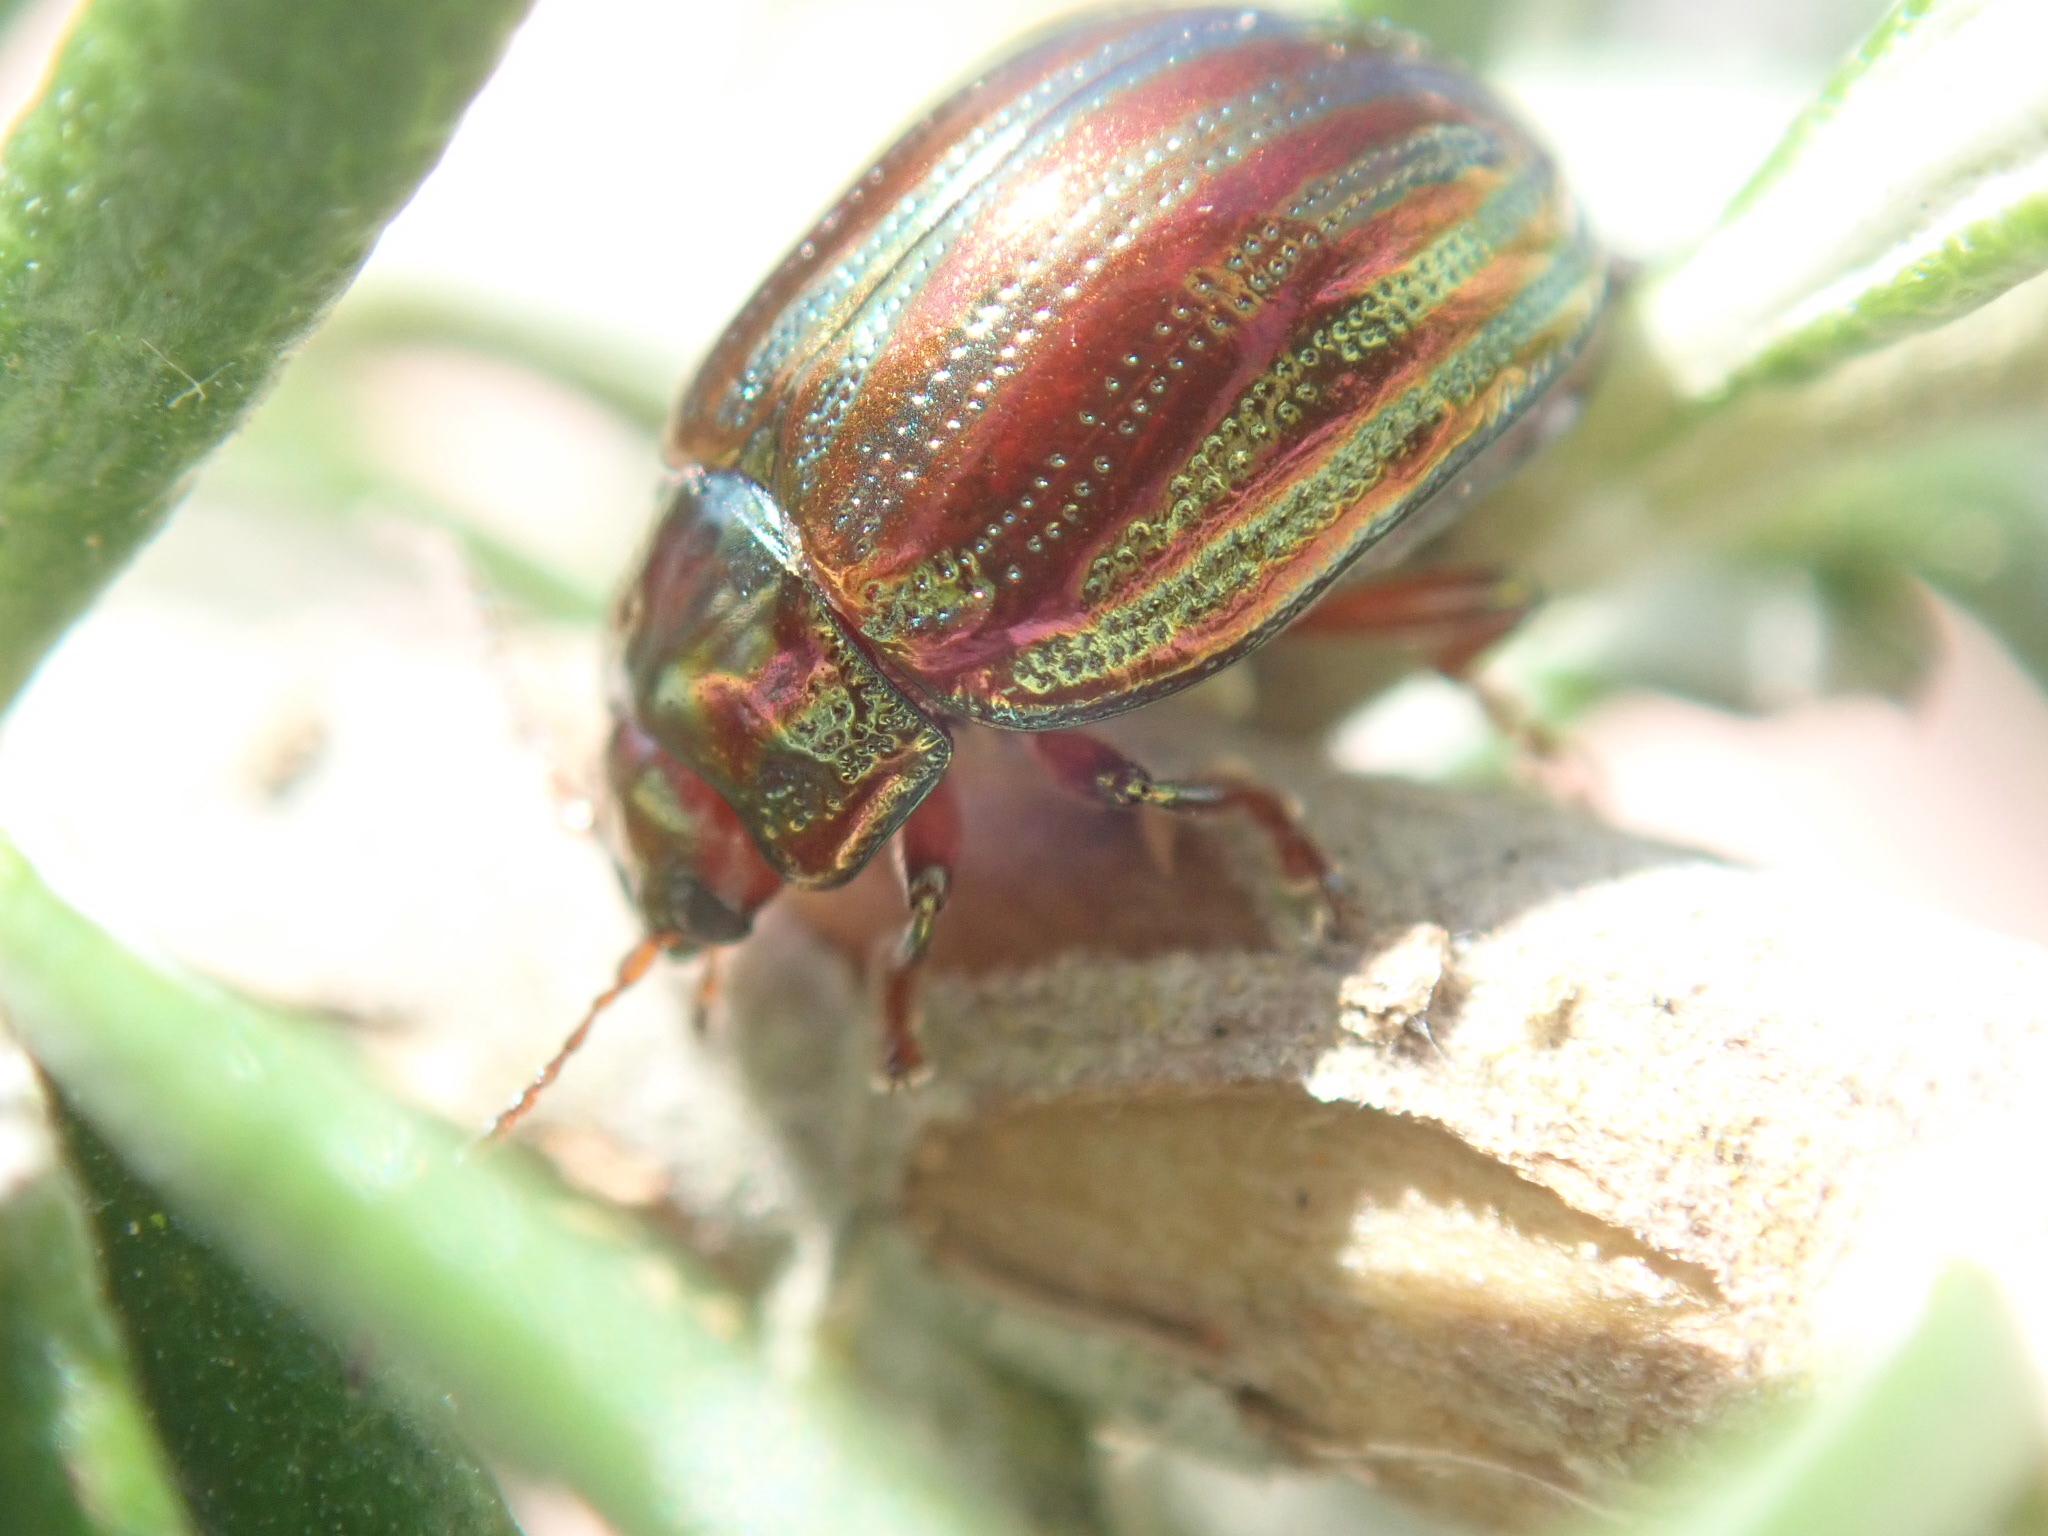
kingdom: Animalia
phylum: Arthropoda
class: Insecta
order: Coleoptera
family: Chrysomelidae
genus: Chrysolina
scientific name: Chrysolina americana
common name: Rosemary beetle
